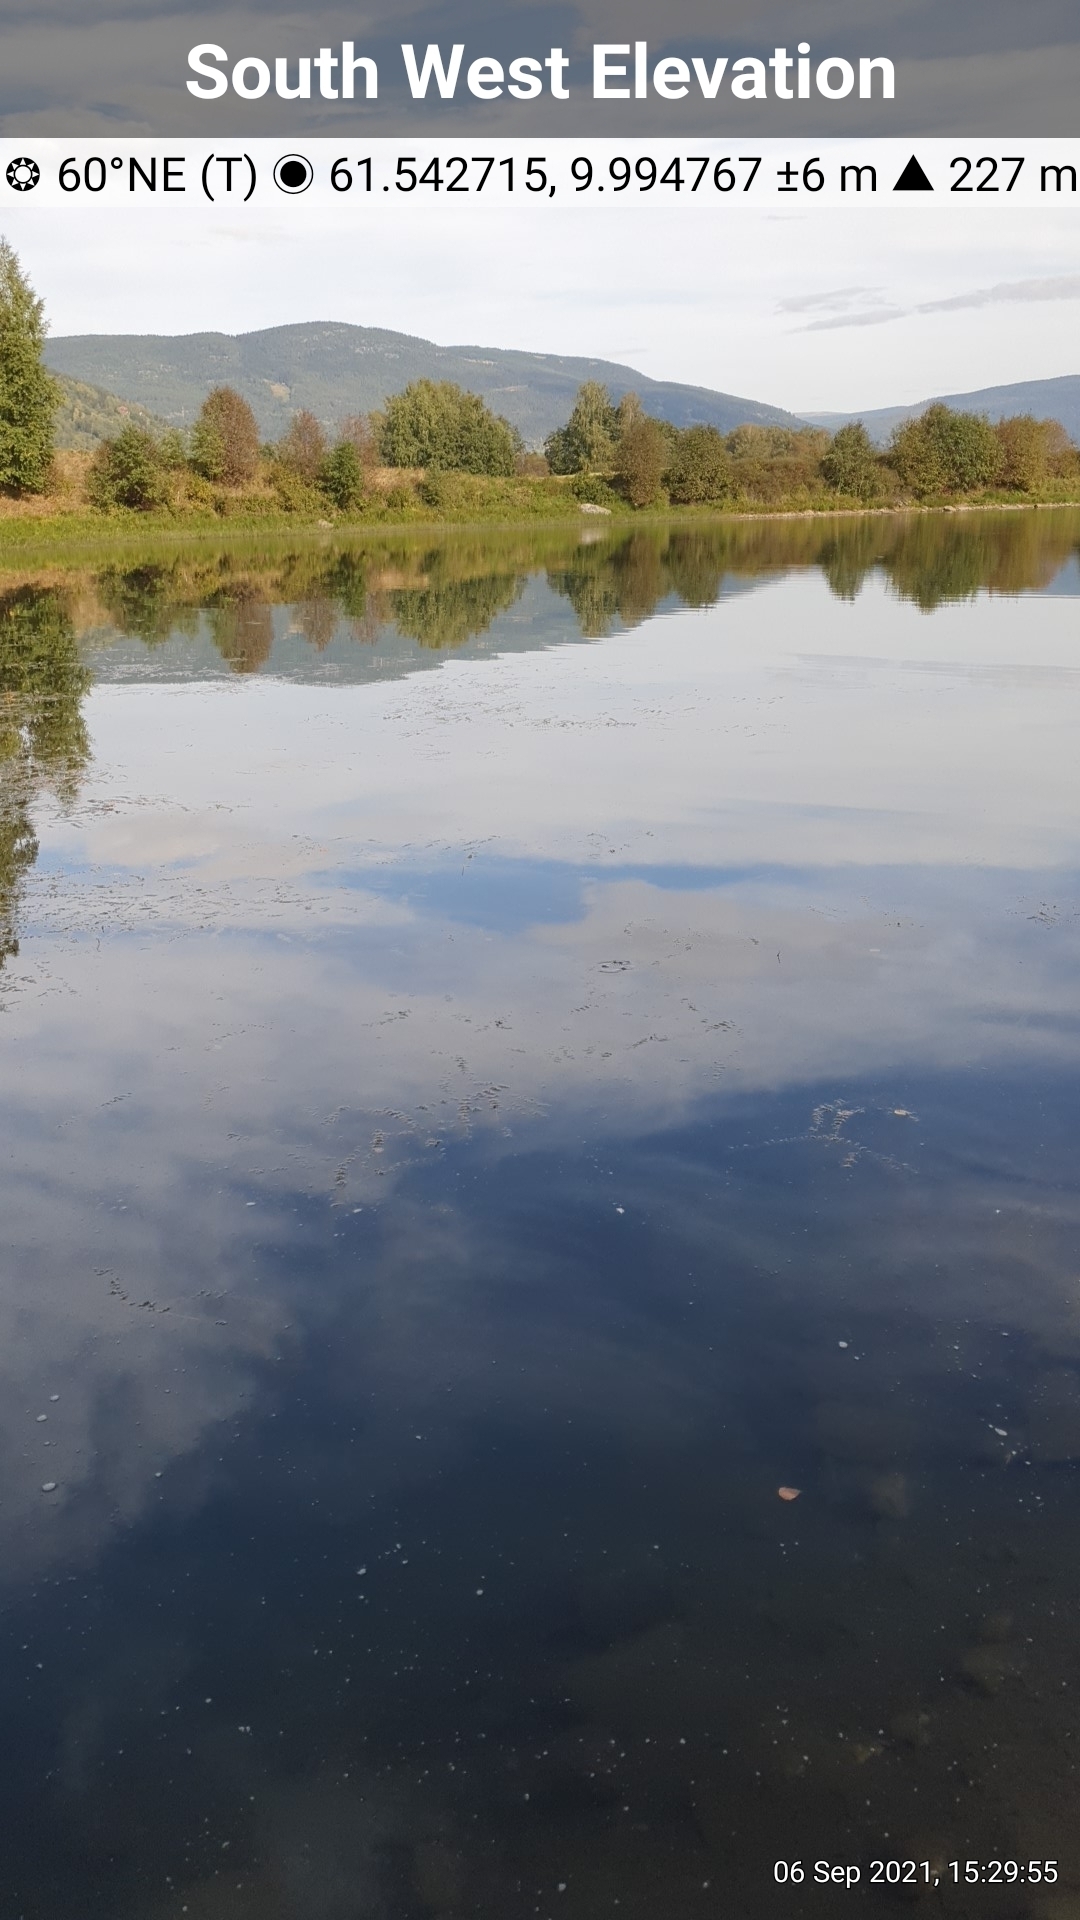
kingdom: Plantae
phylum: Tracheophyta
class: Magnoliopsida
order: Lamiales
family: Plantaginaceae
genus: Callitriche
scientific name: Callitriche hermaphroditica
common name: Autumnal water-starwort
